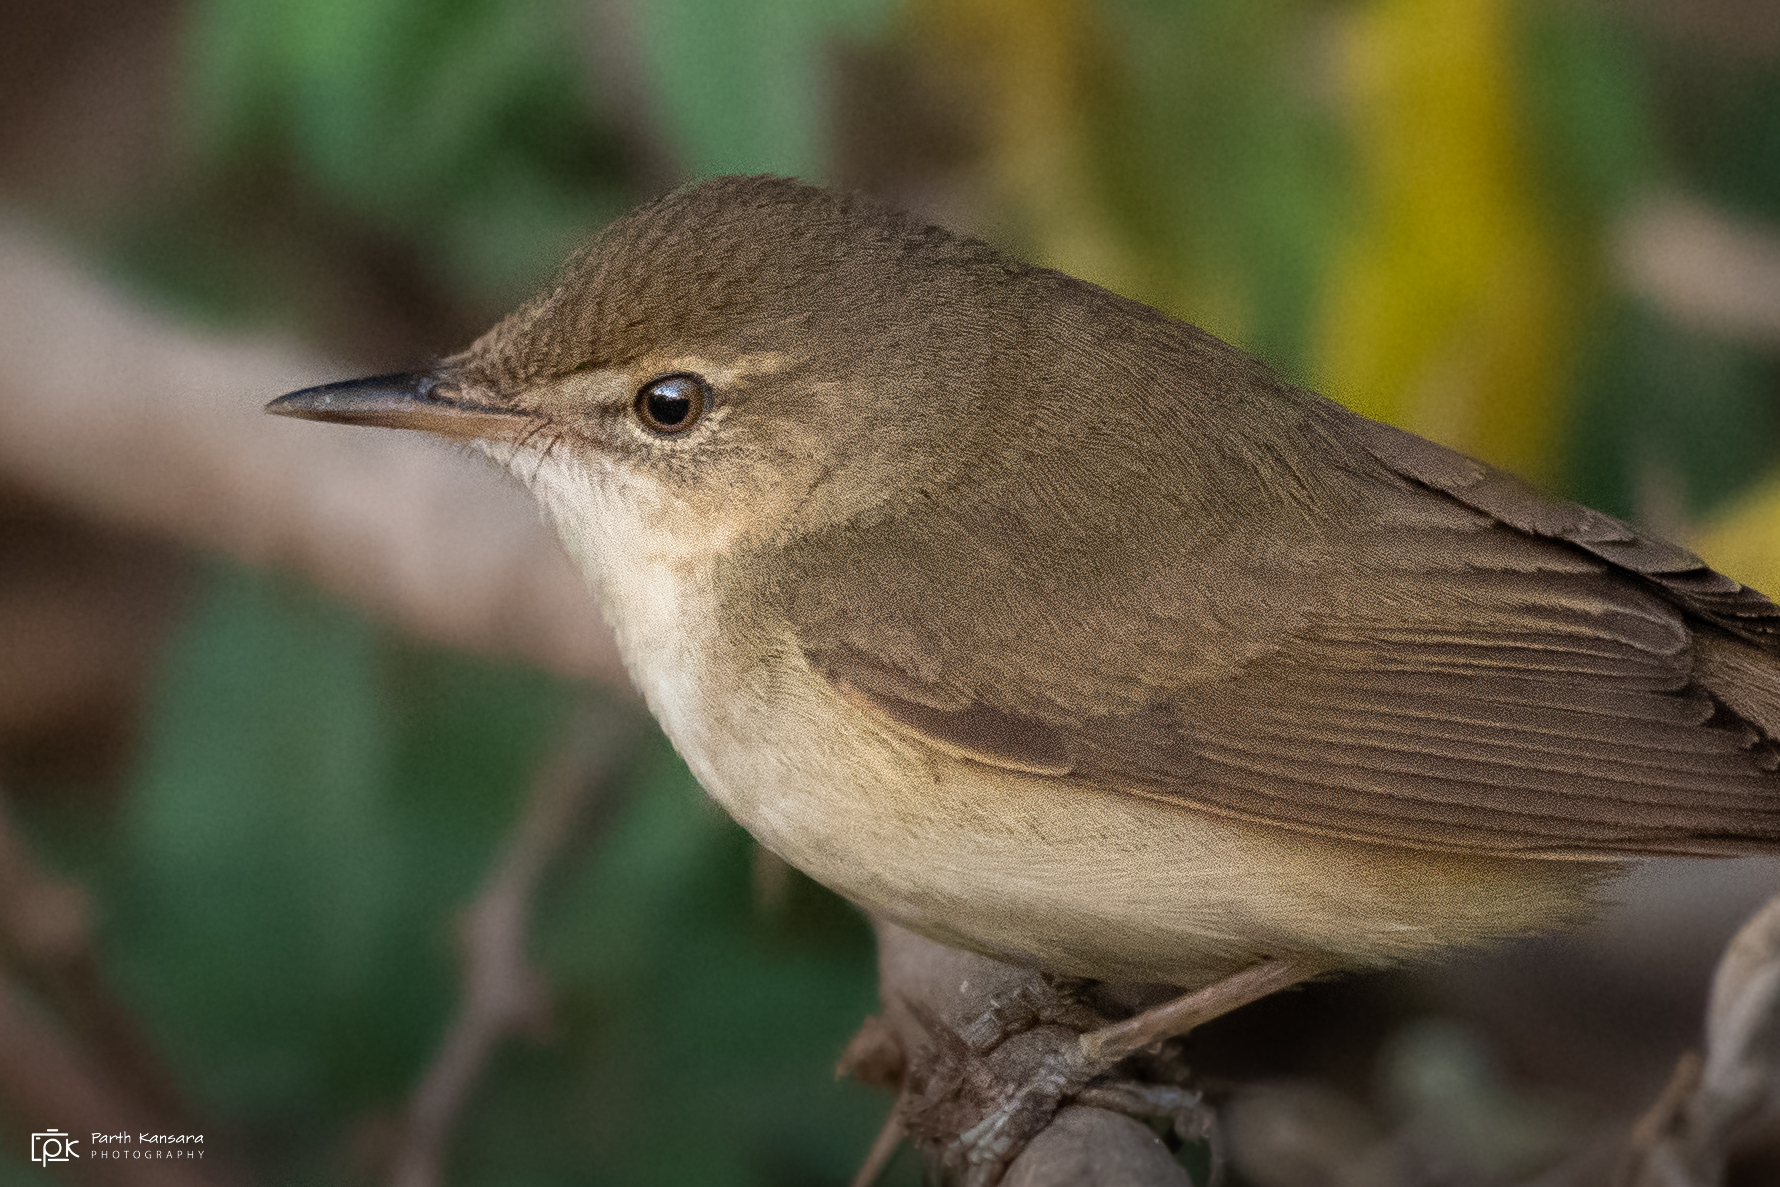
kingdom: Animalia
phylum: Chordata
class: Aves
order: Passeriformes
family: Acrocephalidae
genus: Acrocephalus
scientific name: Acrocephalus dumetorum
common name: Blyth's reed warbler
